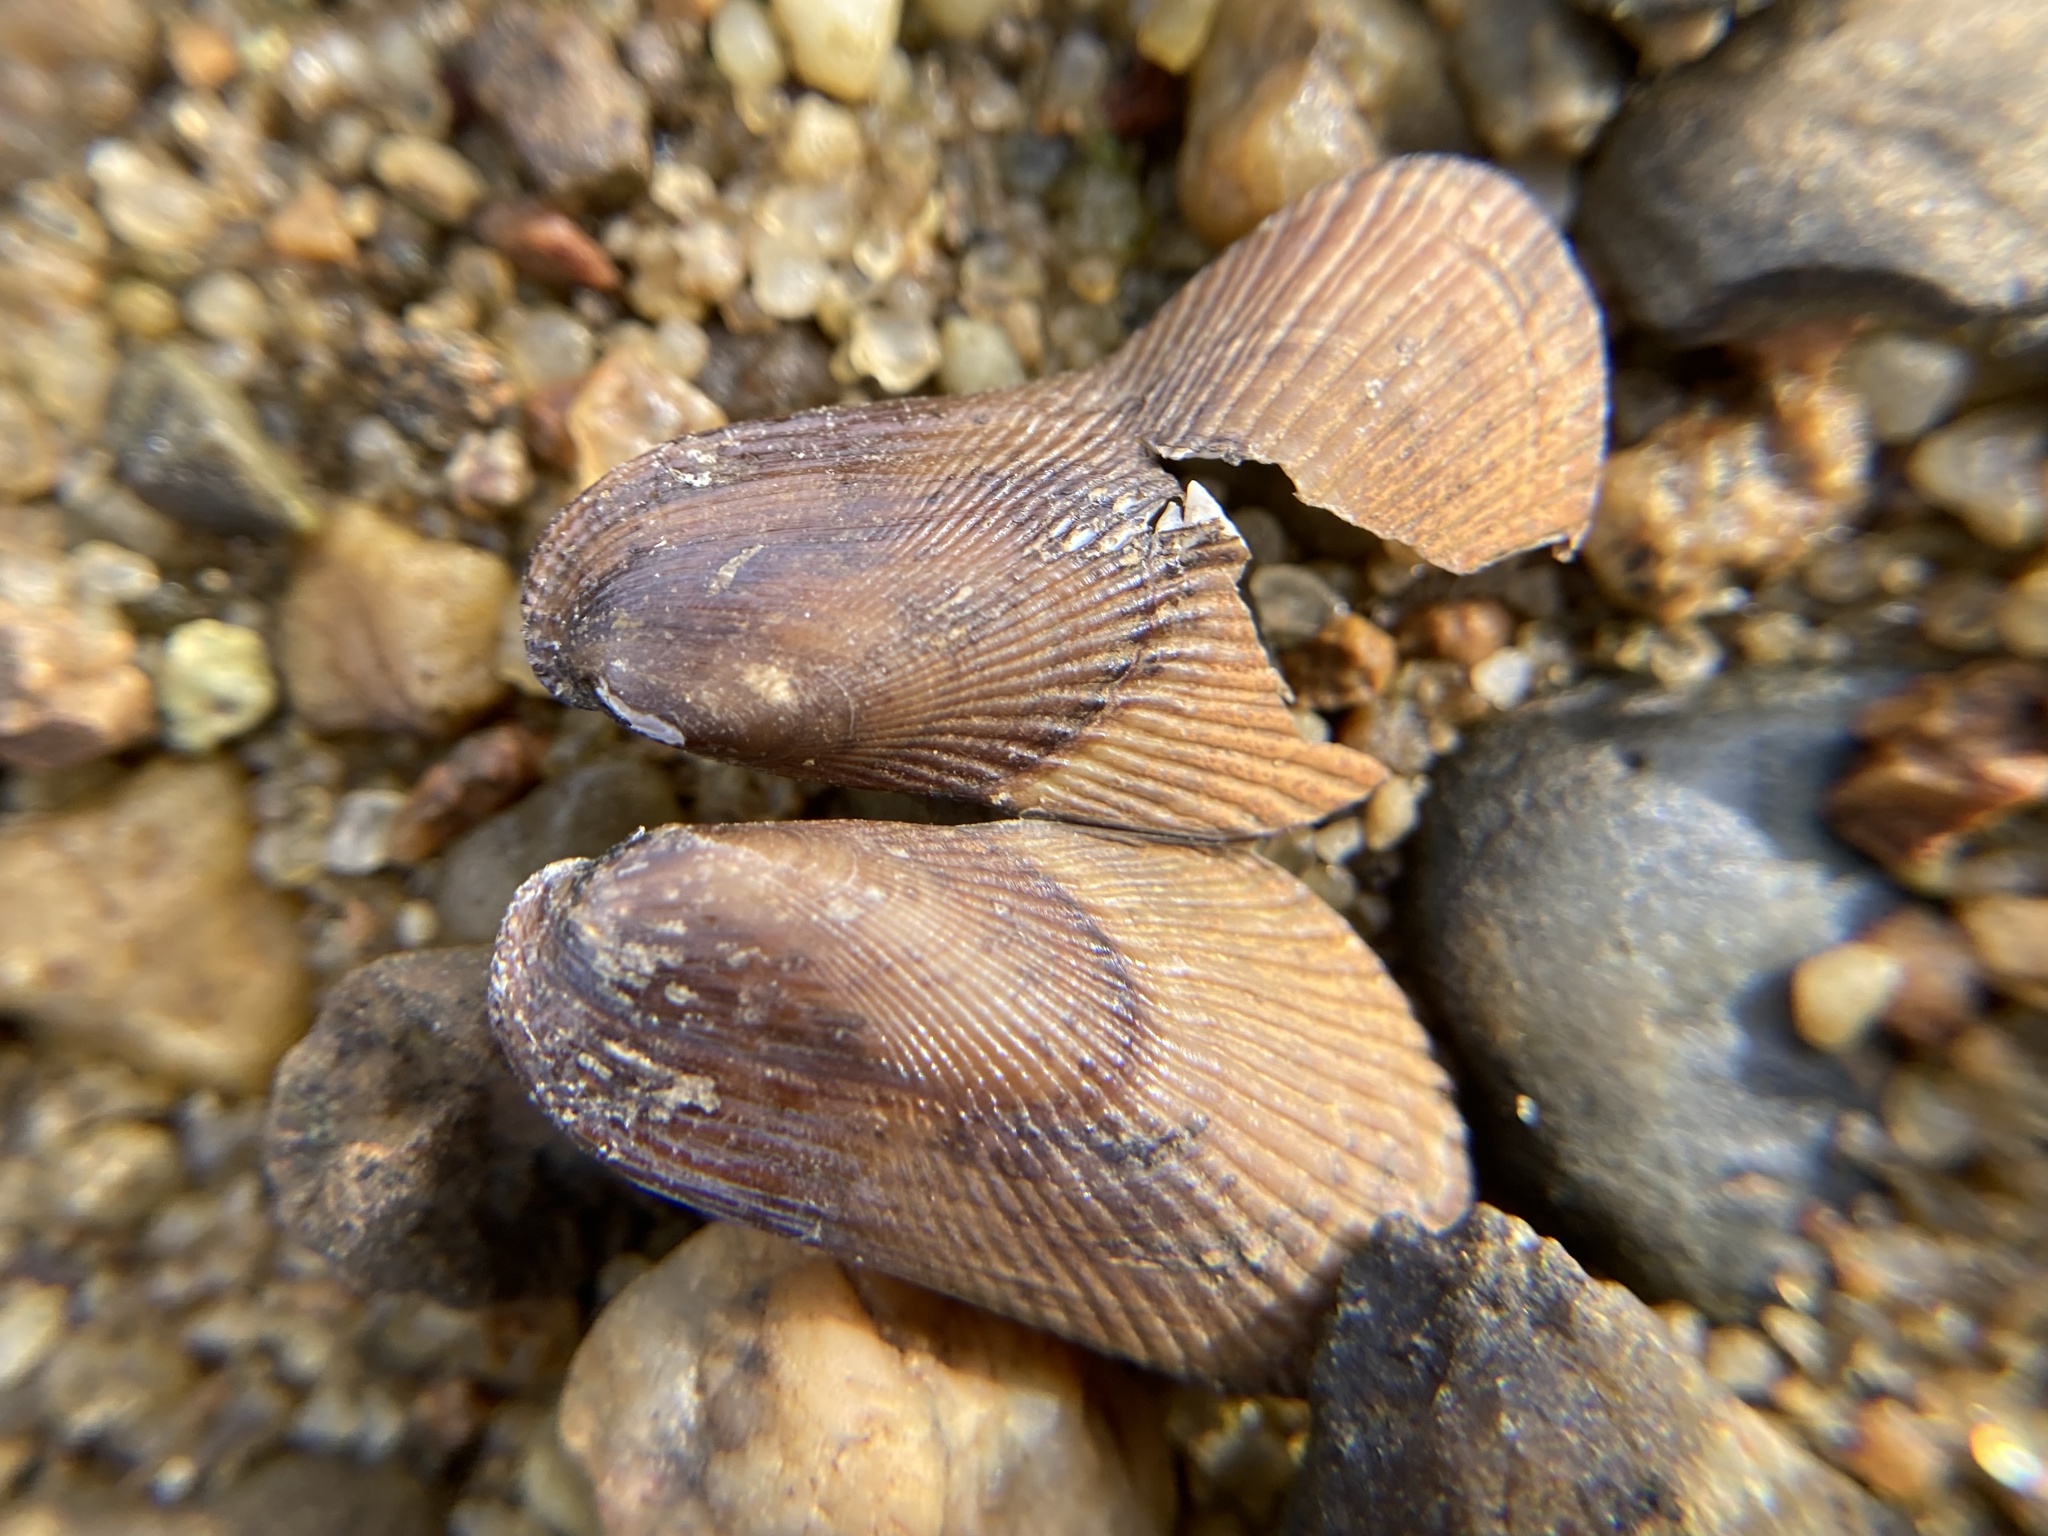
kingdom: Animalia
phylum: Mollusca
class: Bivalvia
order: Mytilida
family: Mytilidae
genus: Geukensia
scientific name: Geukensia demissa
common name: Ribbed mussel
